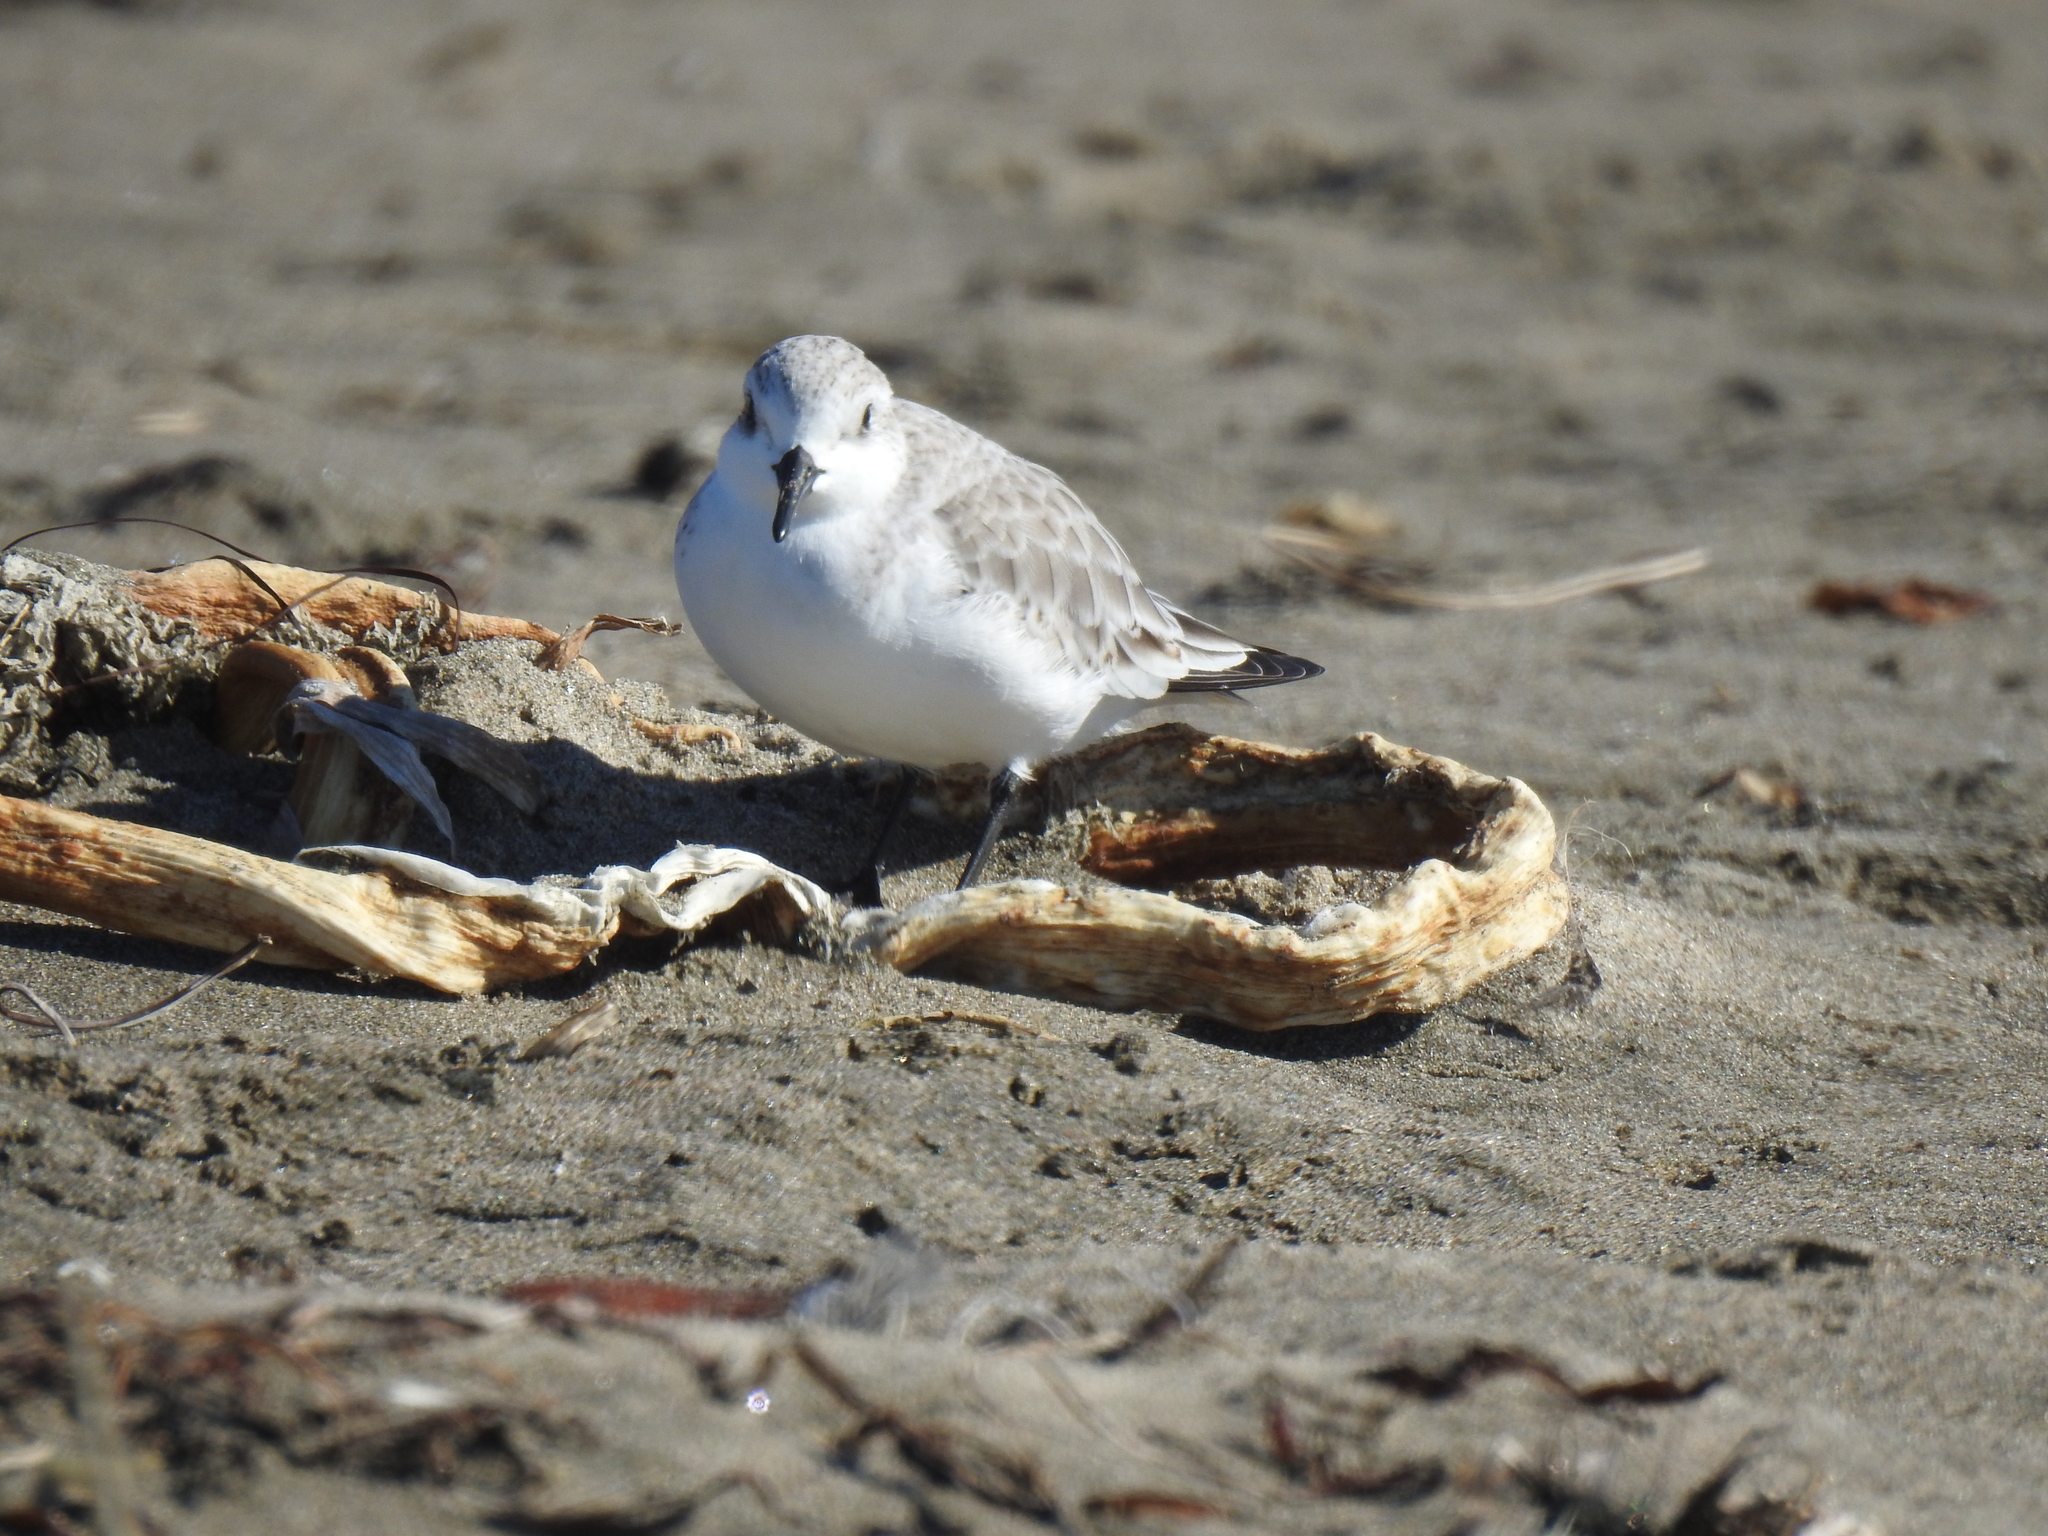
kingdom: Animalia
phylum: Chordata
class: Aves
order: Charadriiformes
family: Scolopacidae
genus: Calidris
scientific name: Calidris alba
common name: Sanderling
